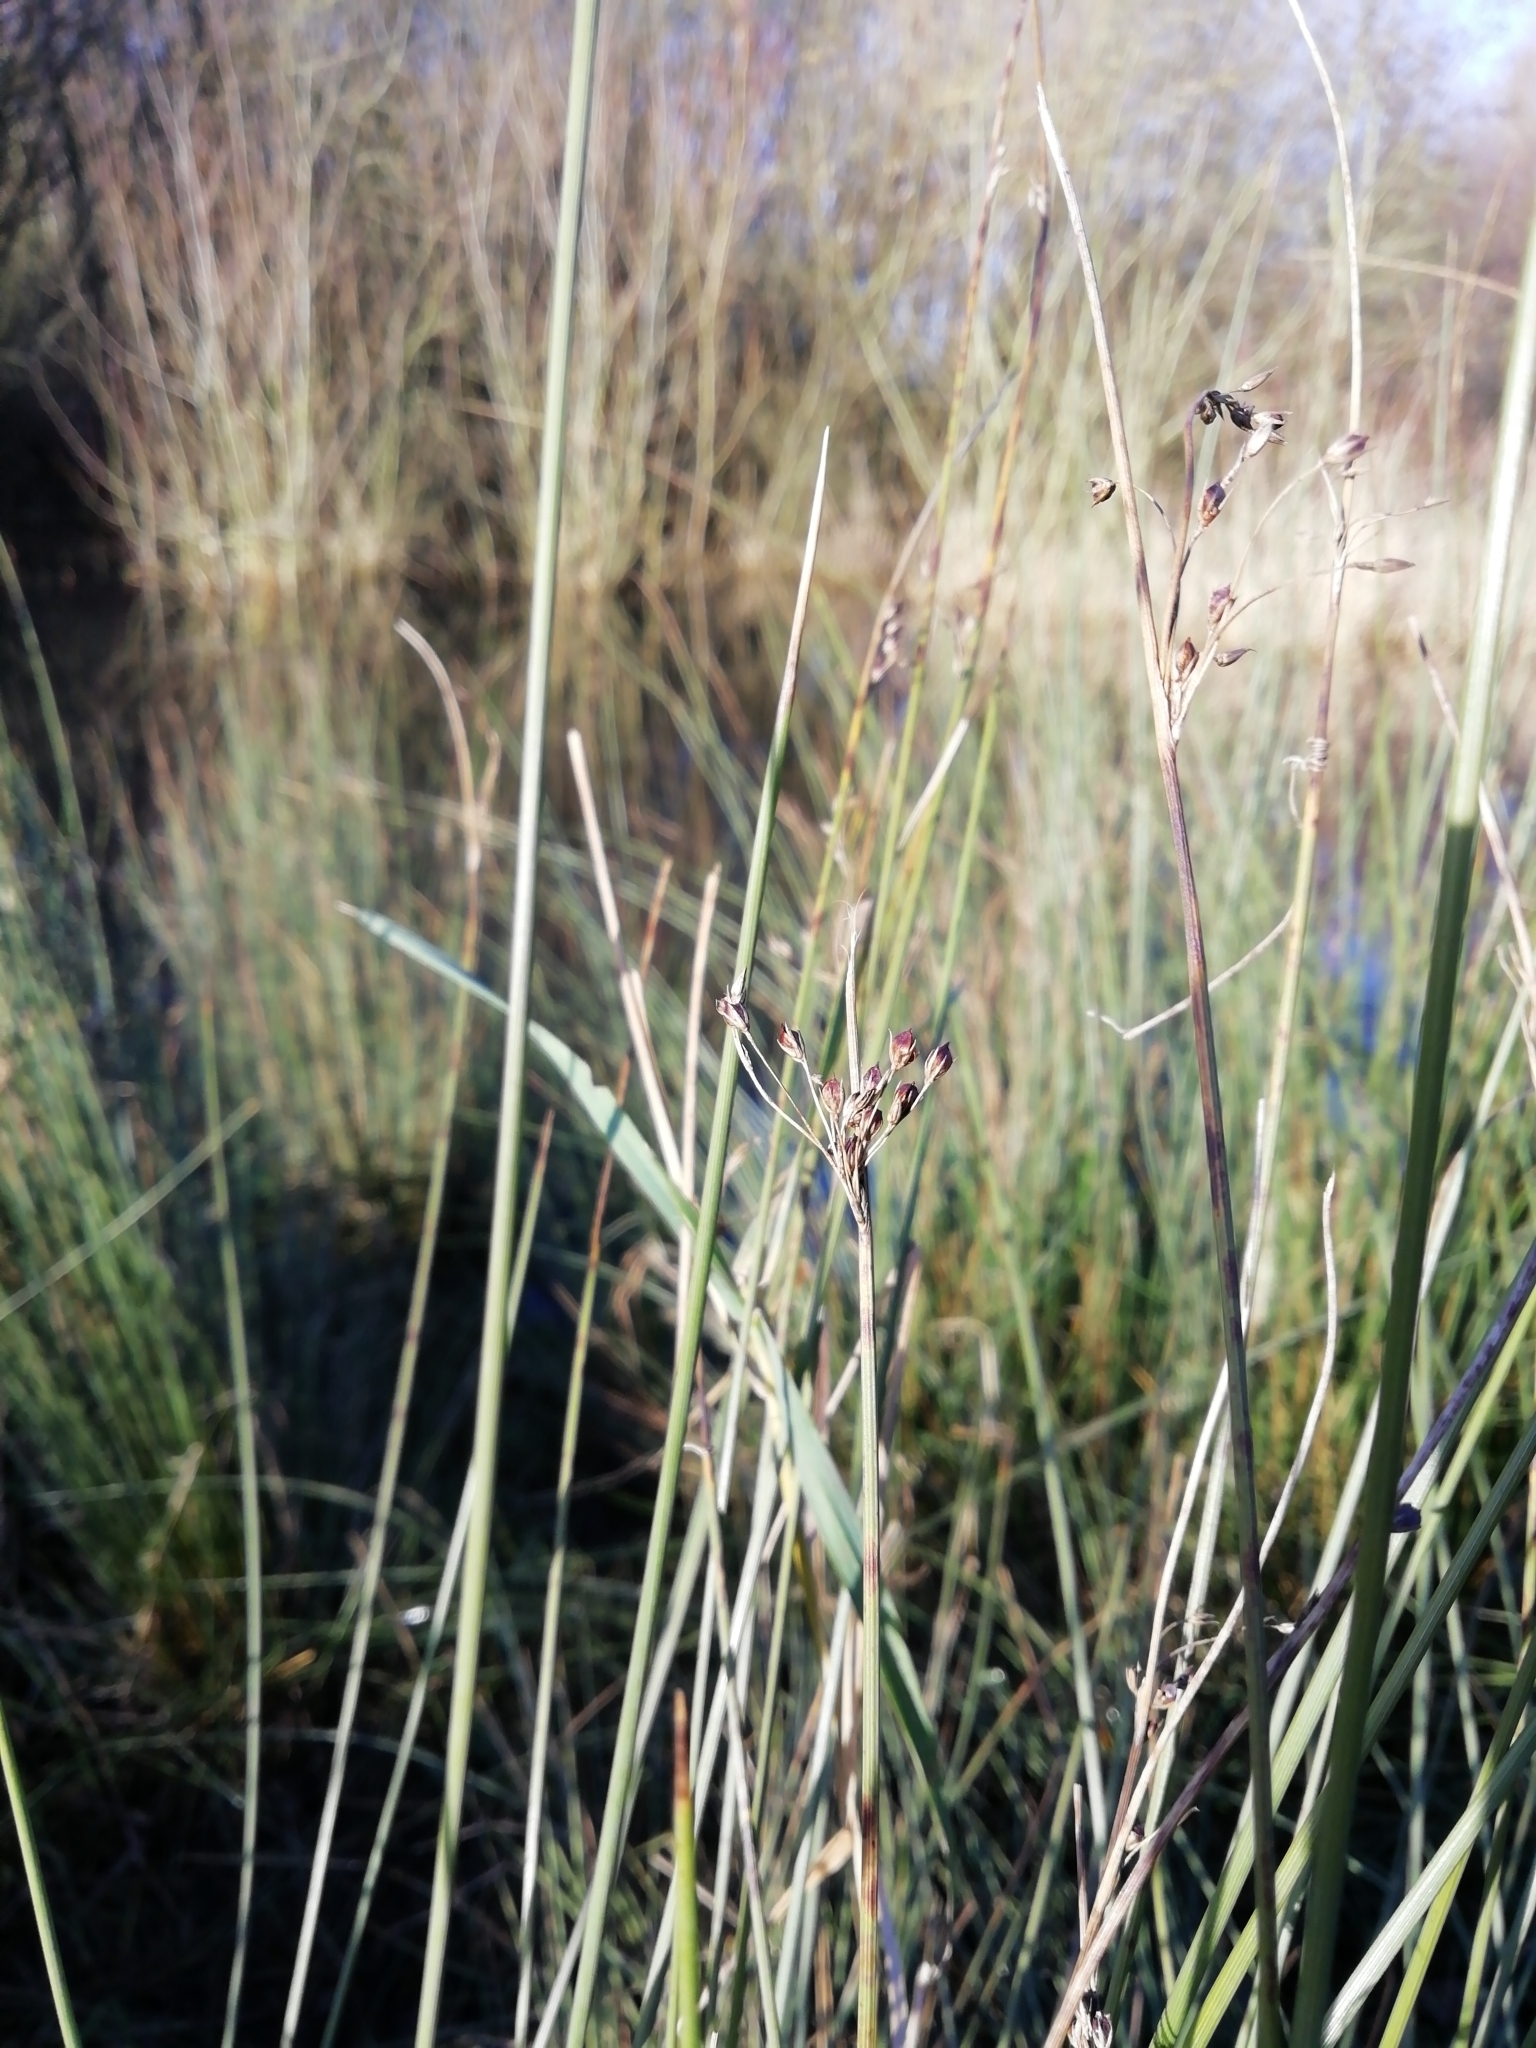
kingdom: Plantae
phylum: Tracheophyta
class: Liliopsida
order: Poales
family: Juncaceae
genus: Juncus
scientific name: Juncus inflexus
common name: Hard rush
